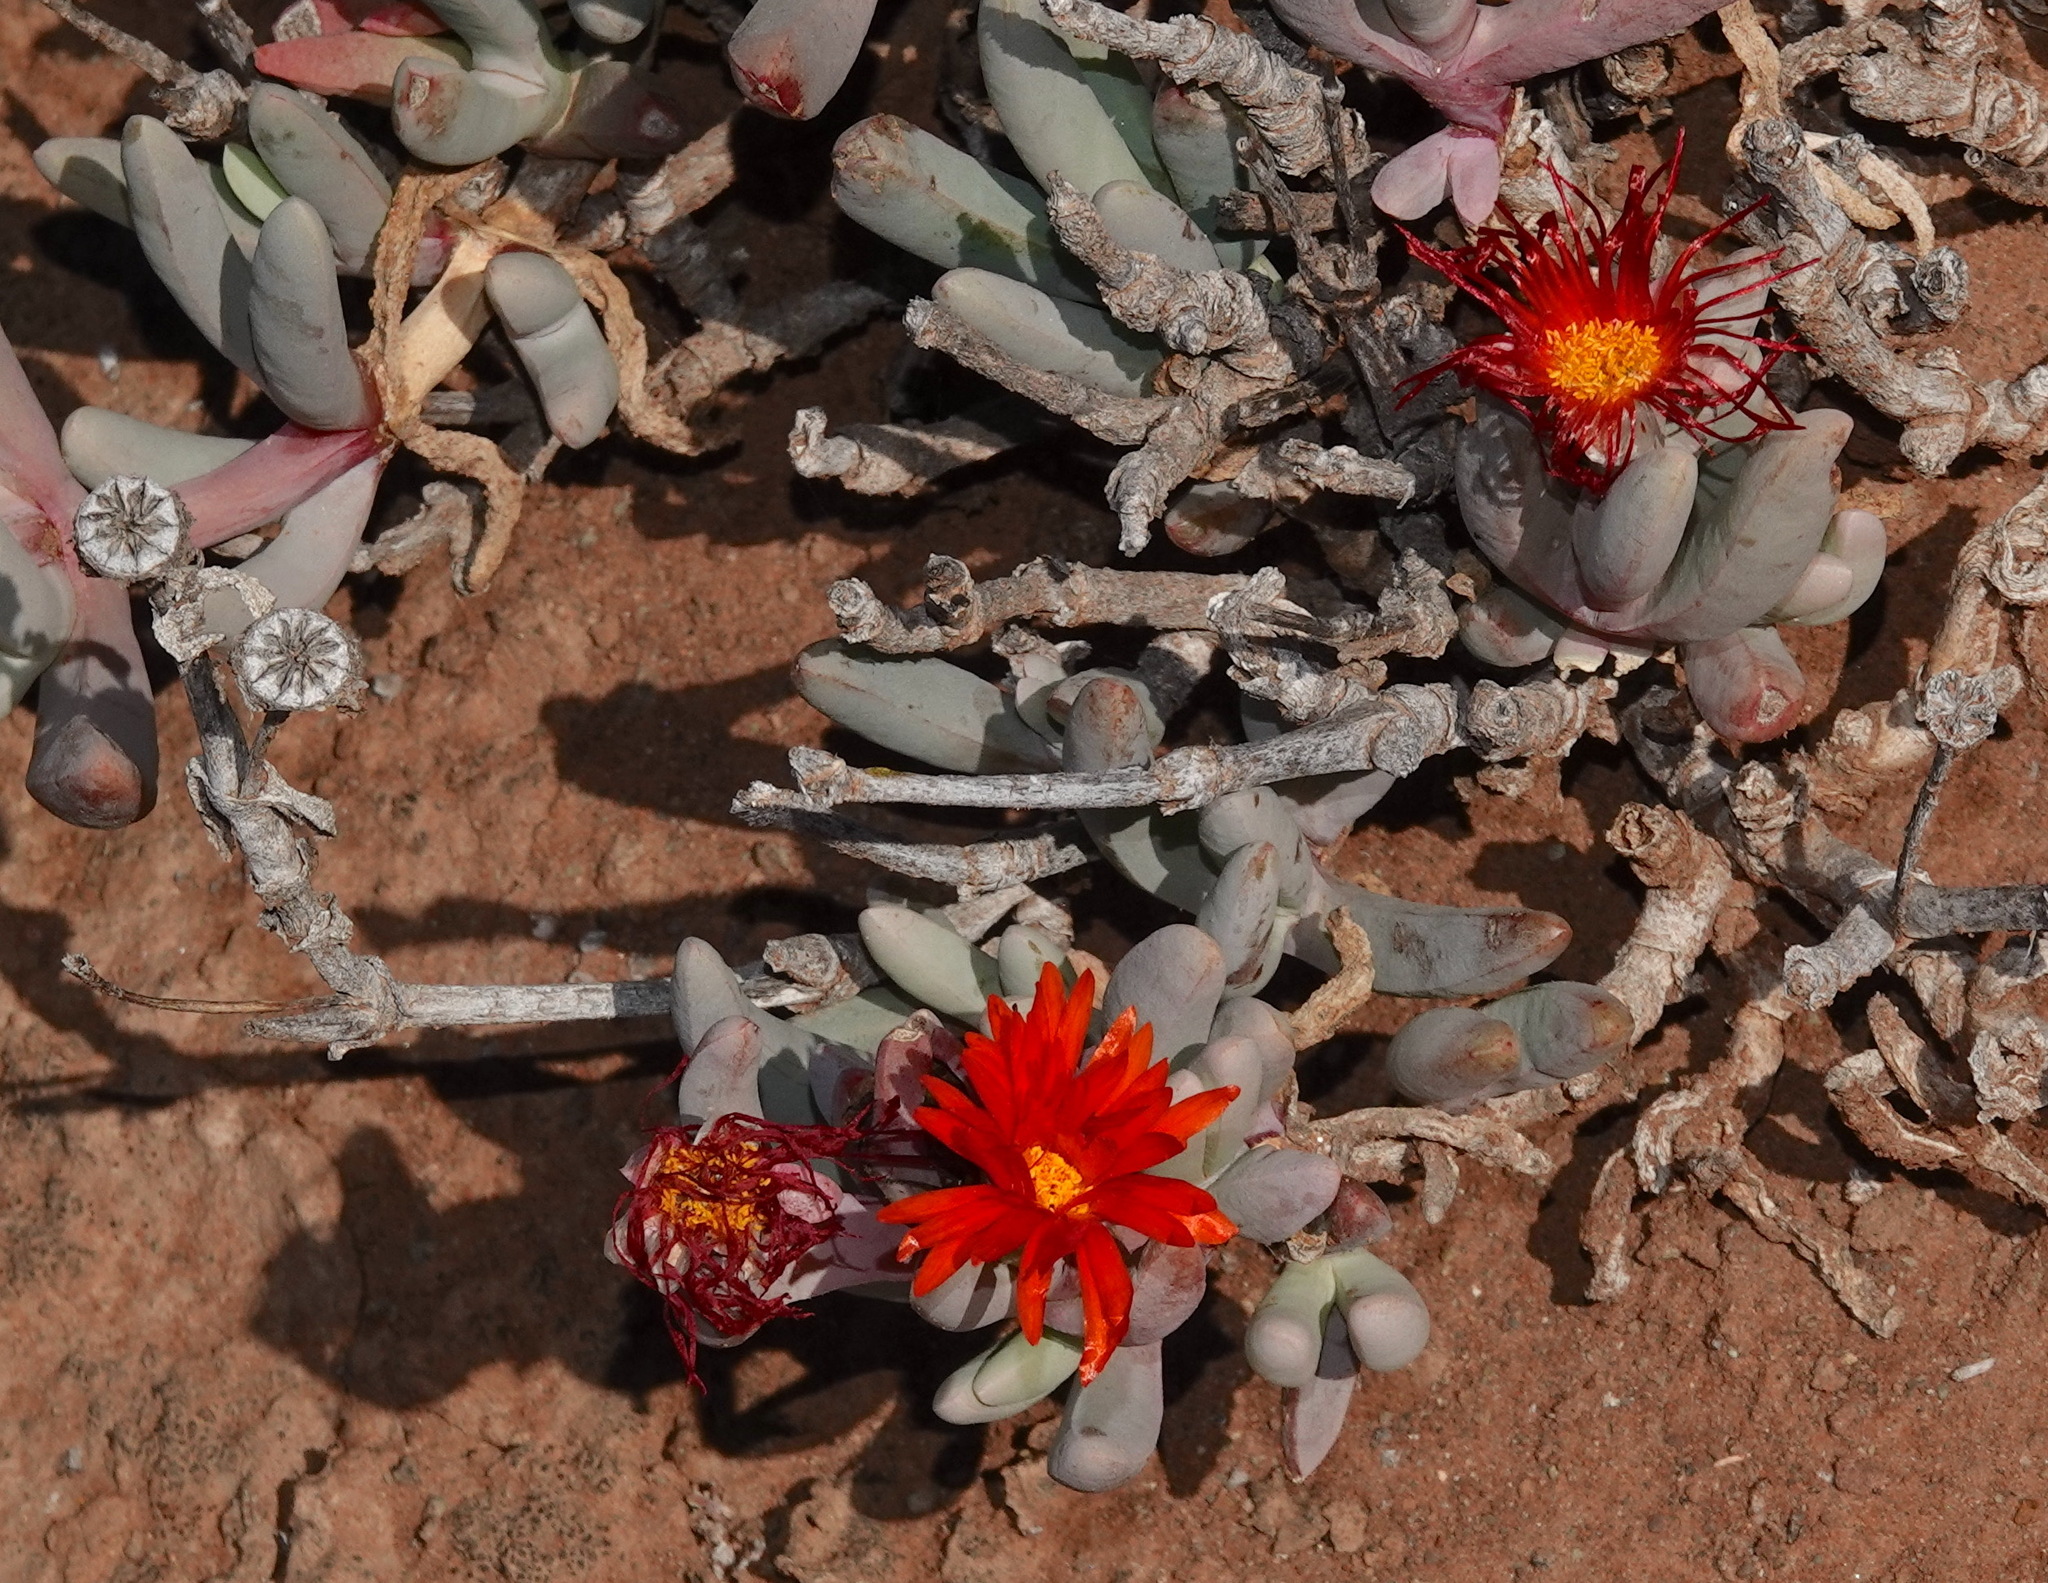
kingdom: Plantae
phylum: Tracheophyta
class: Magnoliopsida
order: Caryophyllales
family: Aizoaceae
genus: Malephora
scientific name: Malephora purpureocrocea
